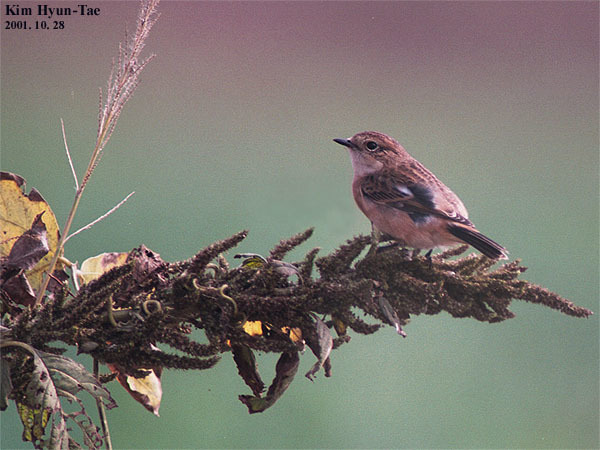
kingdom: Animalia
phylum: Chordata
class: Aves
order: Passeriformes
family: Muscicapidae
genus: Saxicola
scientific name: Saxicola stejnegeri
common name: Stejneger's stonechat
